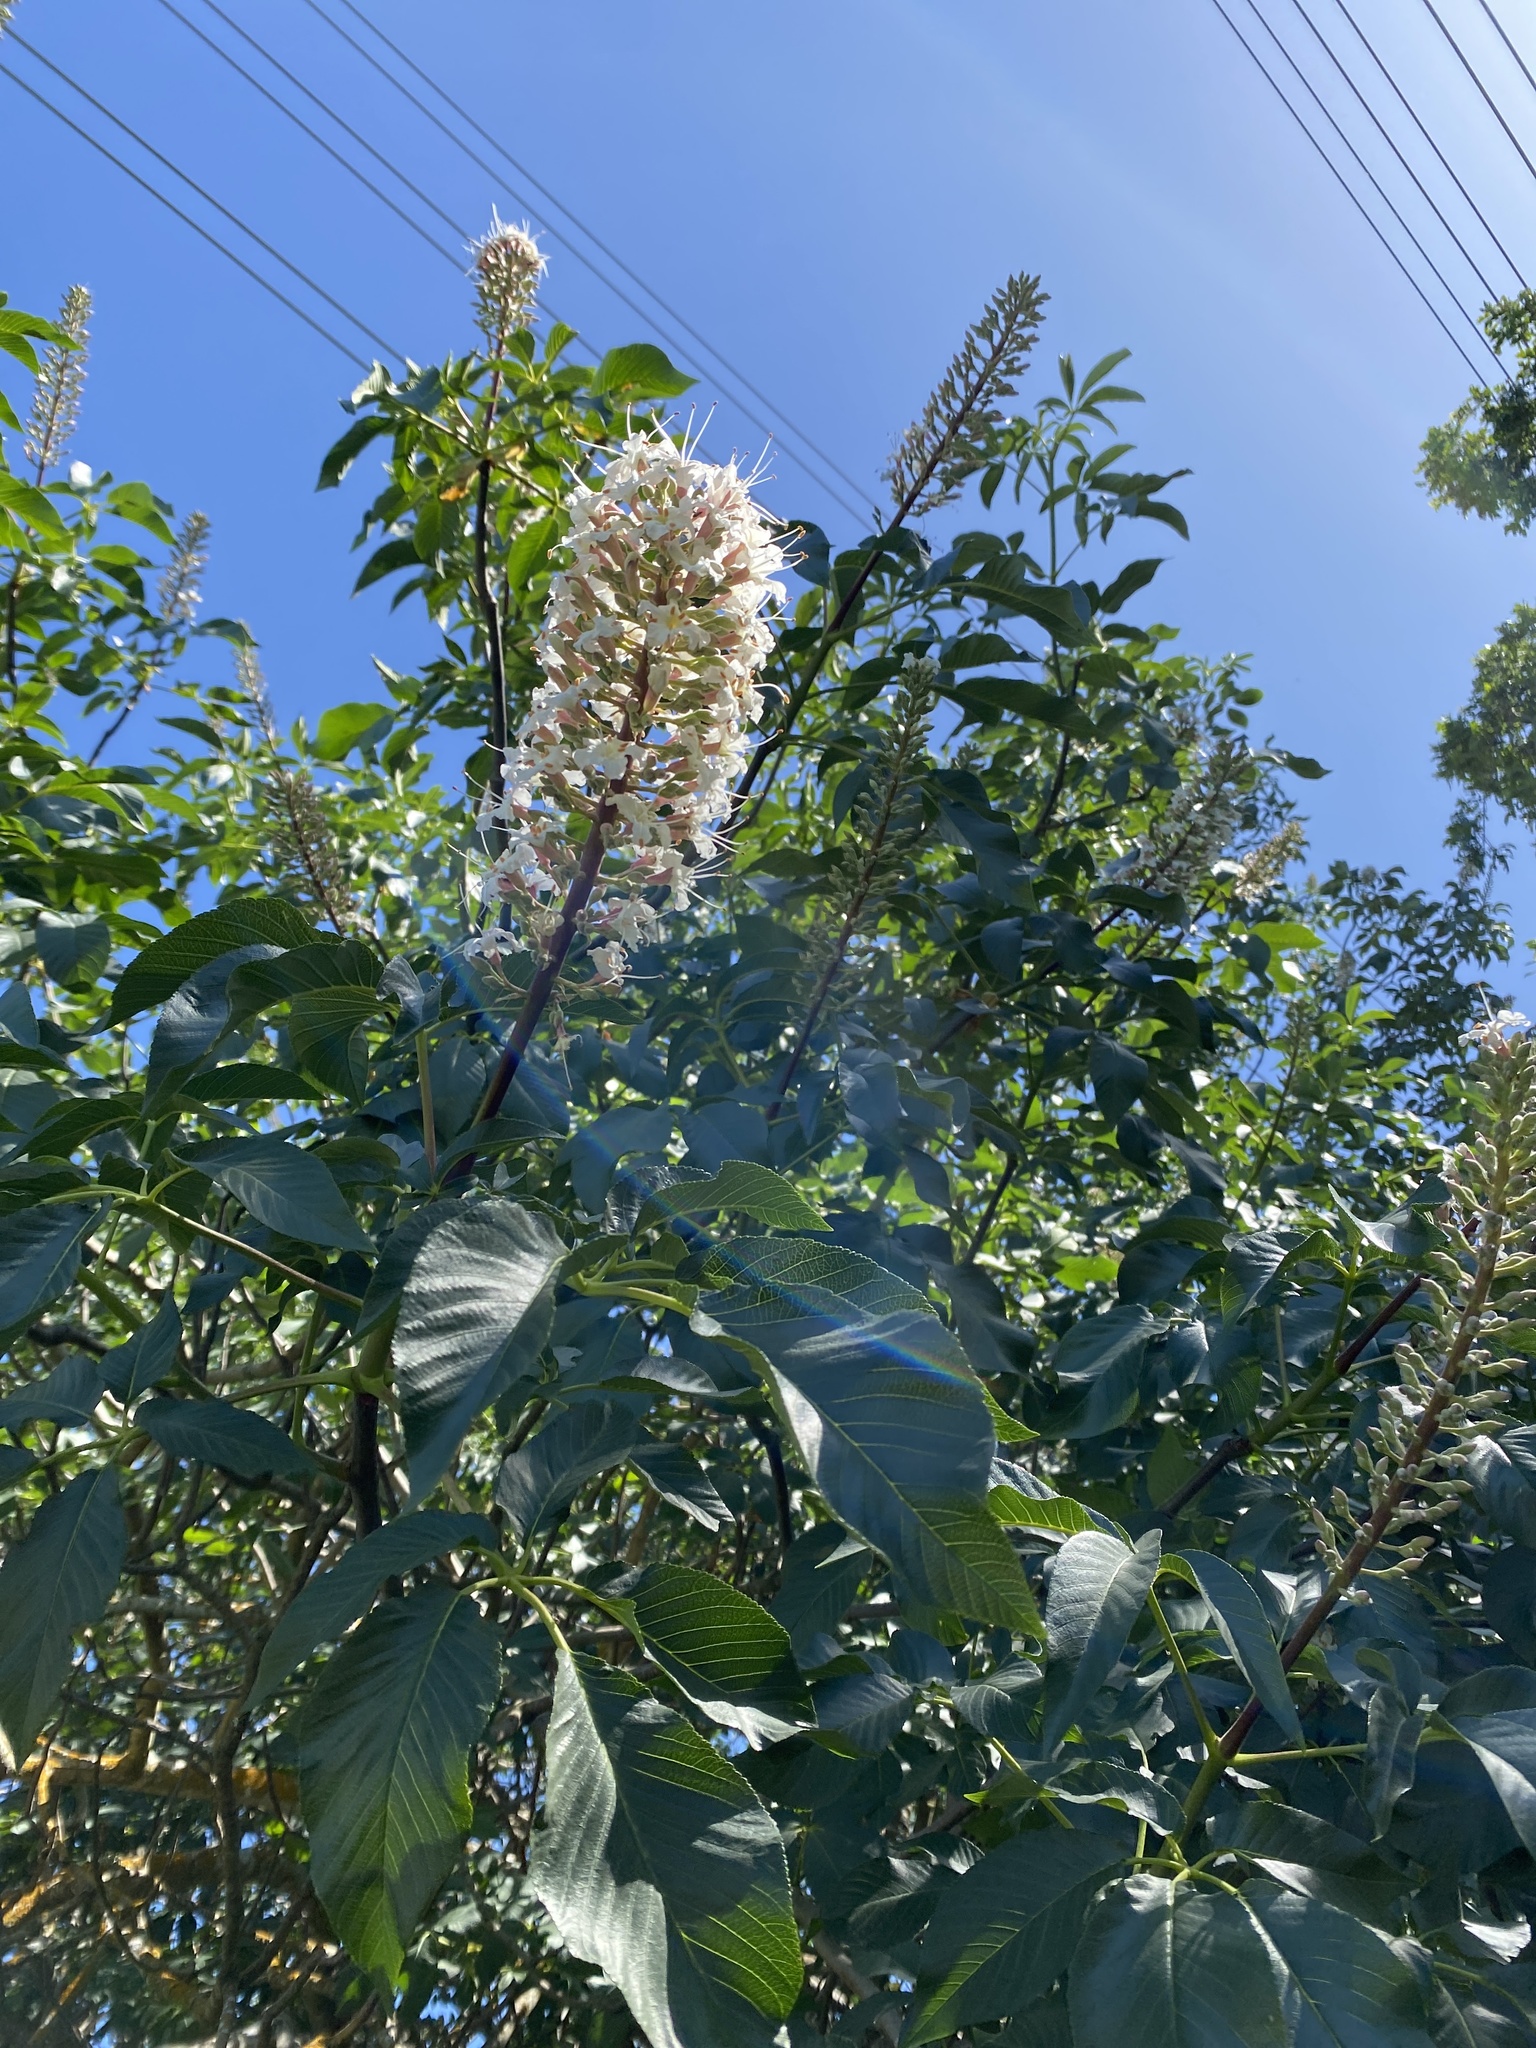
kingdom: Plantae
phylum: Tracheophyta
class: Magnoliopsida
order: Sapindales
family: Sapindaceae
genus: Aesculus
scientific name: Aesculus californica
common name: California buckeye
